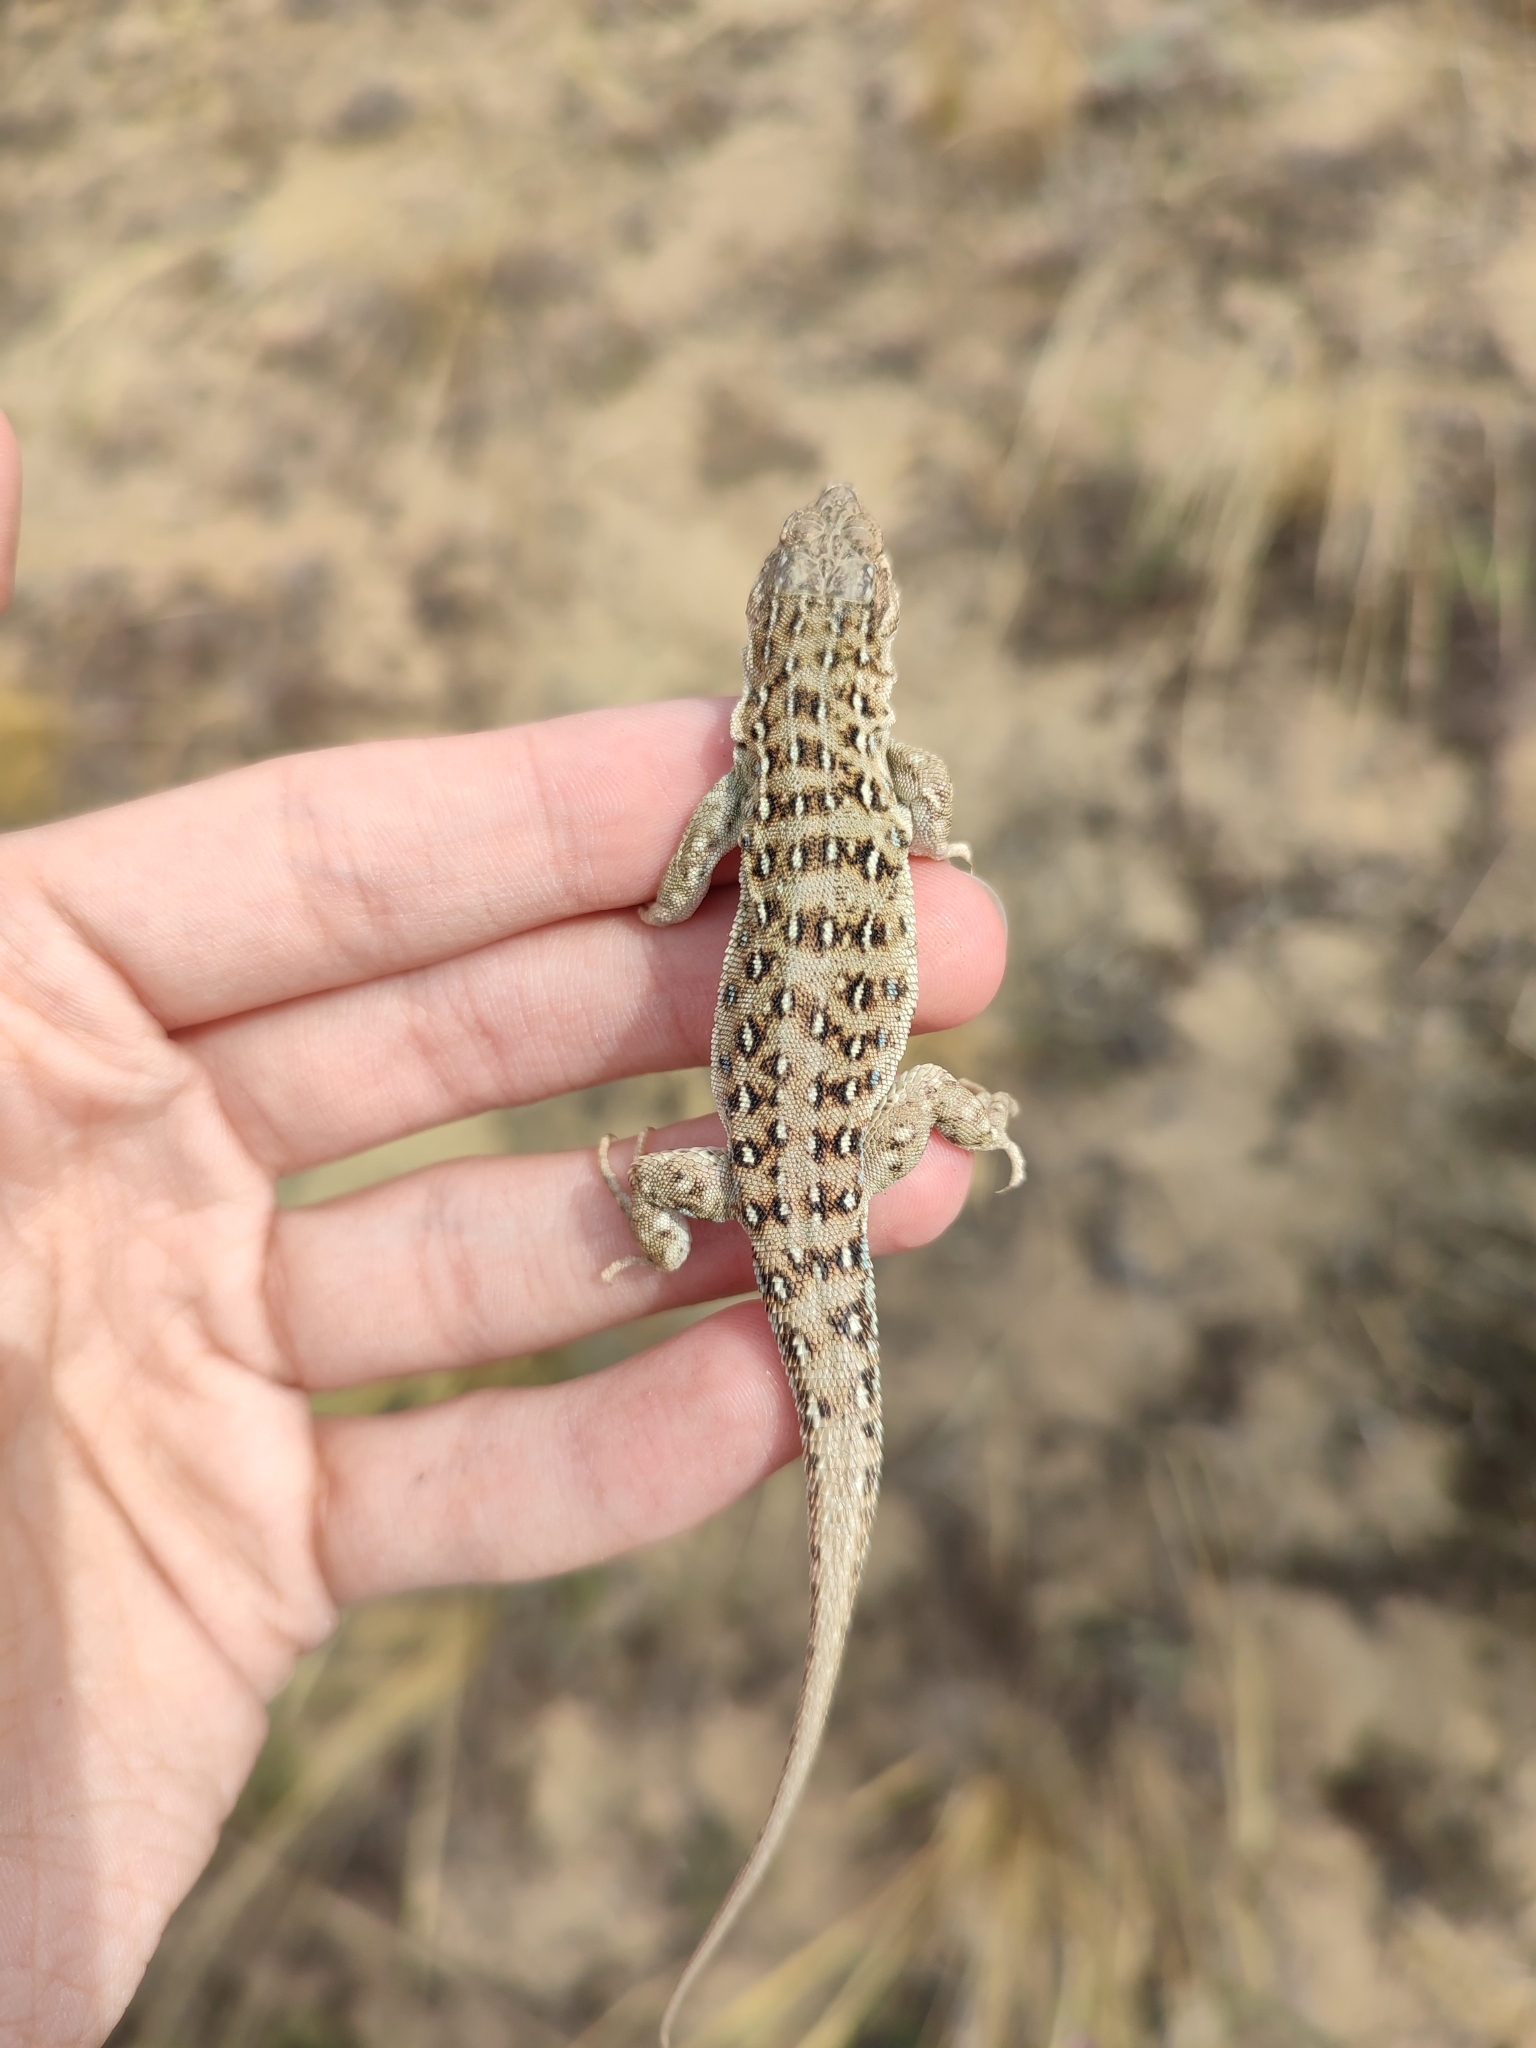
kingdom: Animalia
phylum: Chordata
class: Squamata
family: Lacertidae
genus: Eremias
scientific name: Eremias arguta
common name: Racerunner
